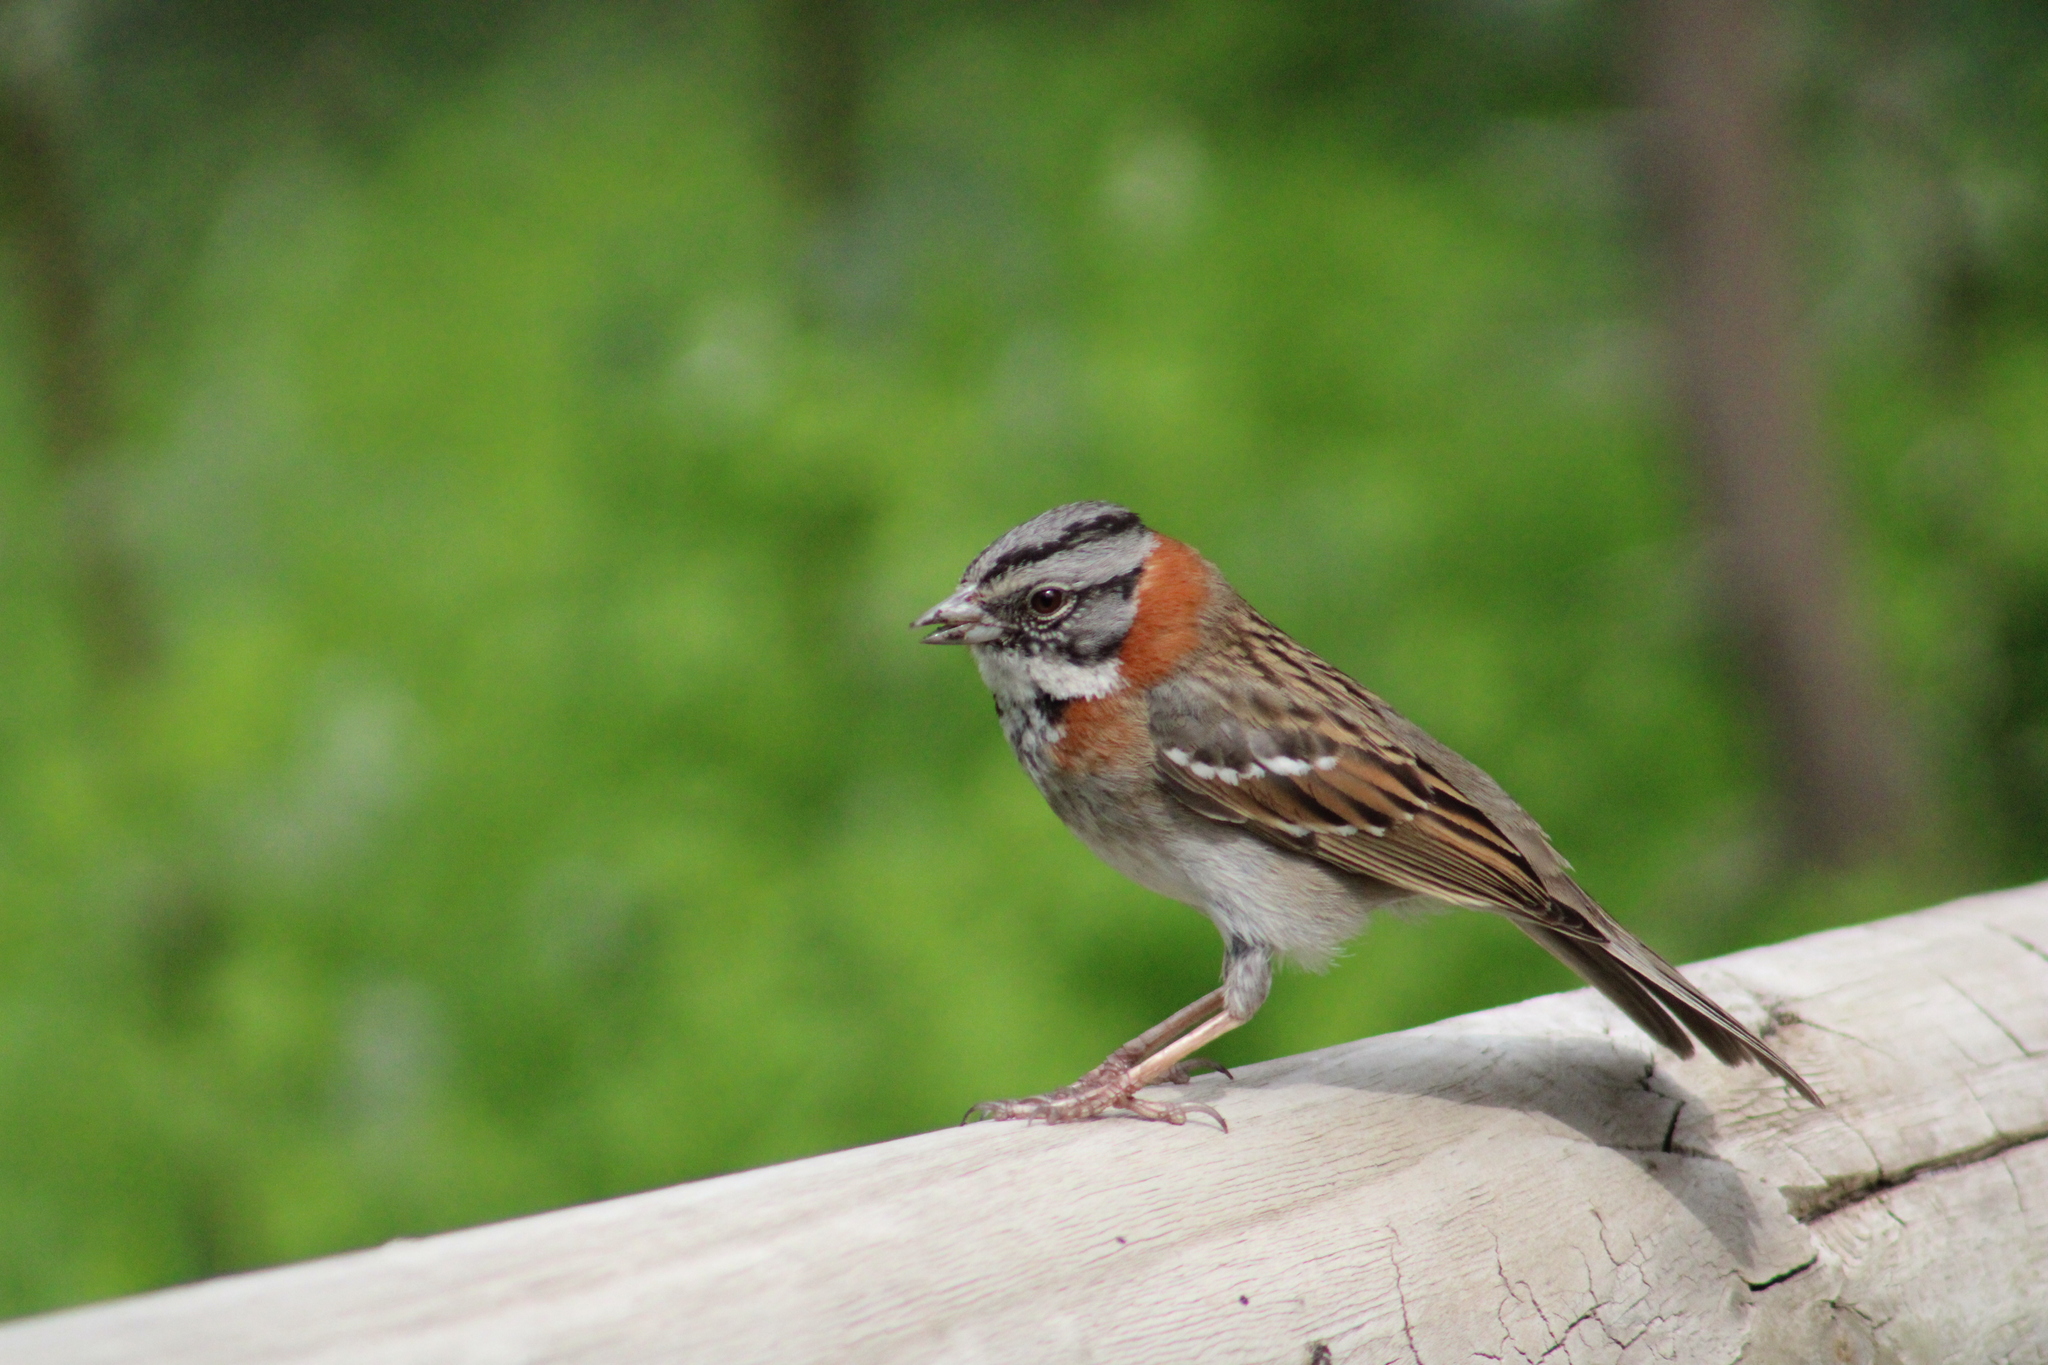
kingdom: Animalia
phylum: Chordata
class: Aves
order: Passeriformes
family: Passerellidae
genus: Zonotrichia
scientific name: Zonotrichia capensis
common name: Rufous-collared sparrow
